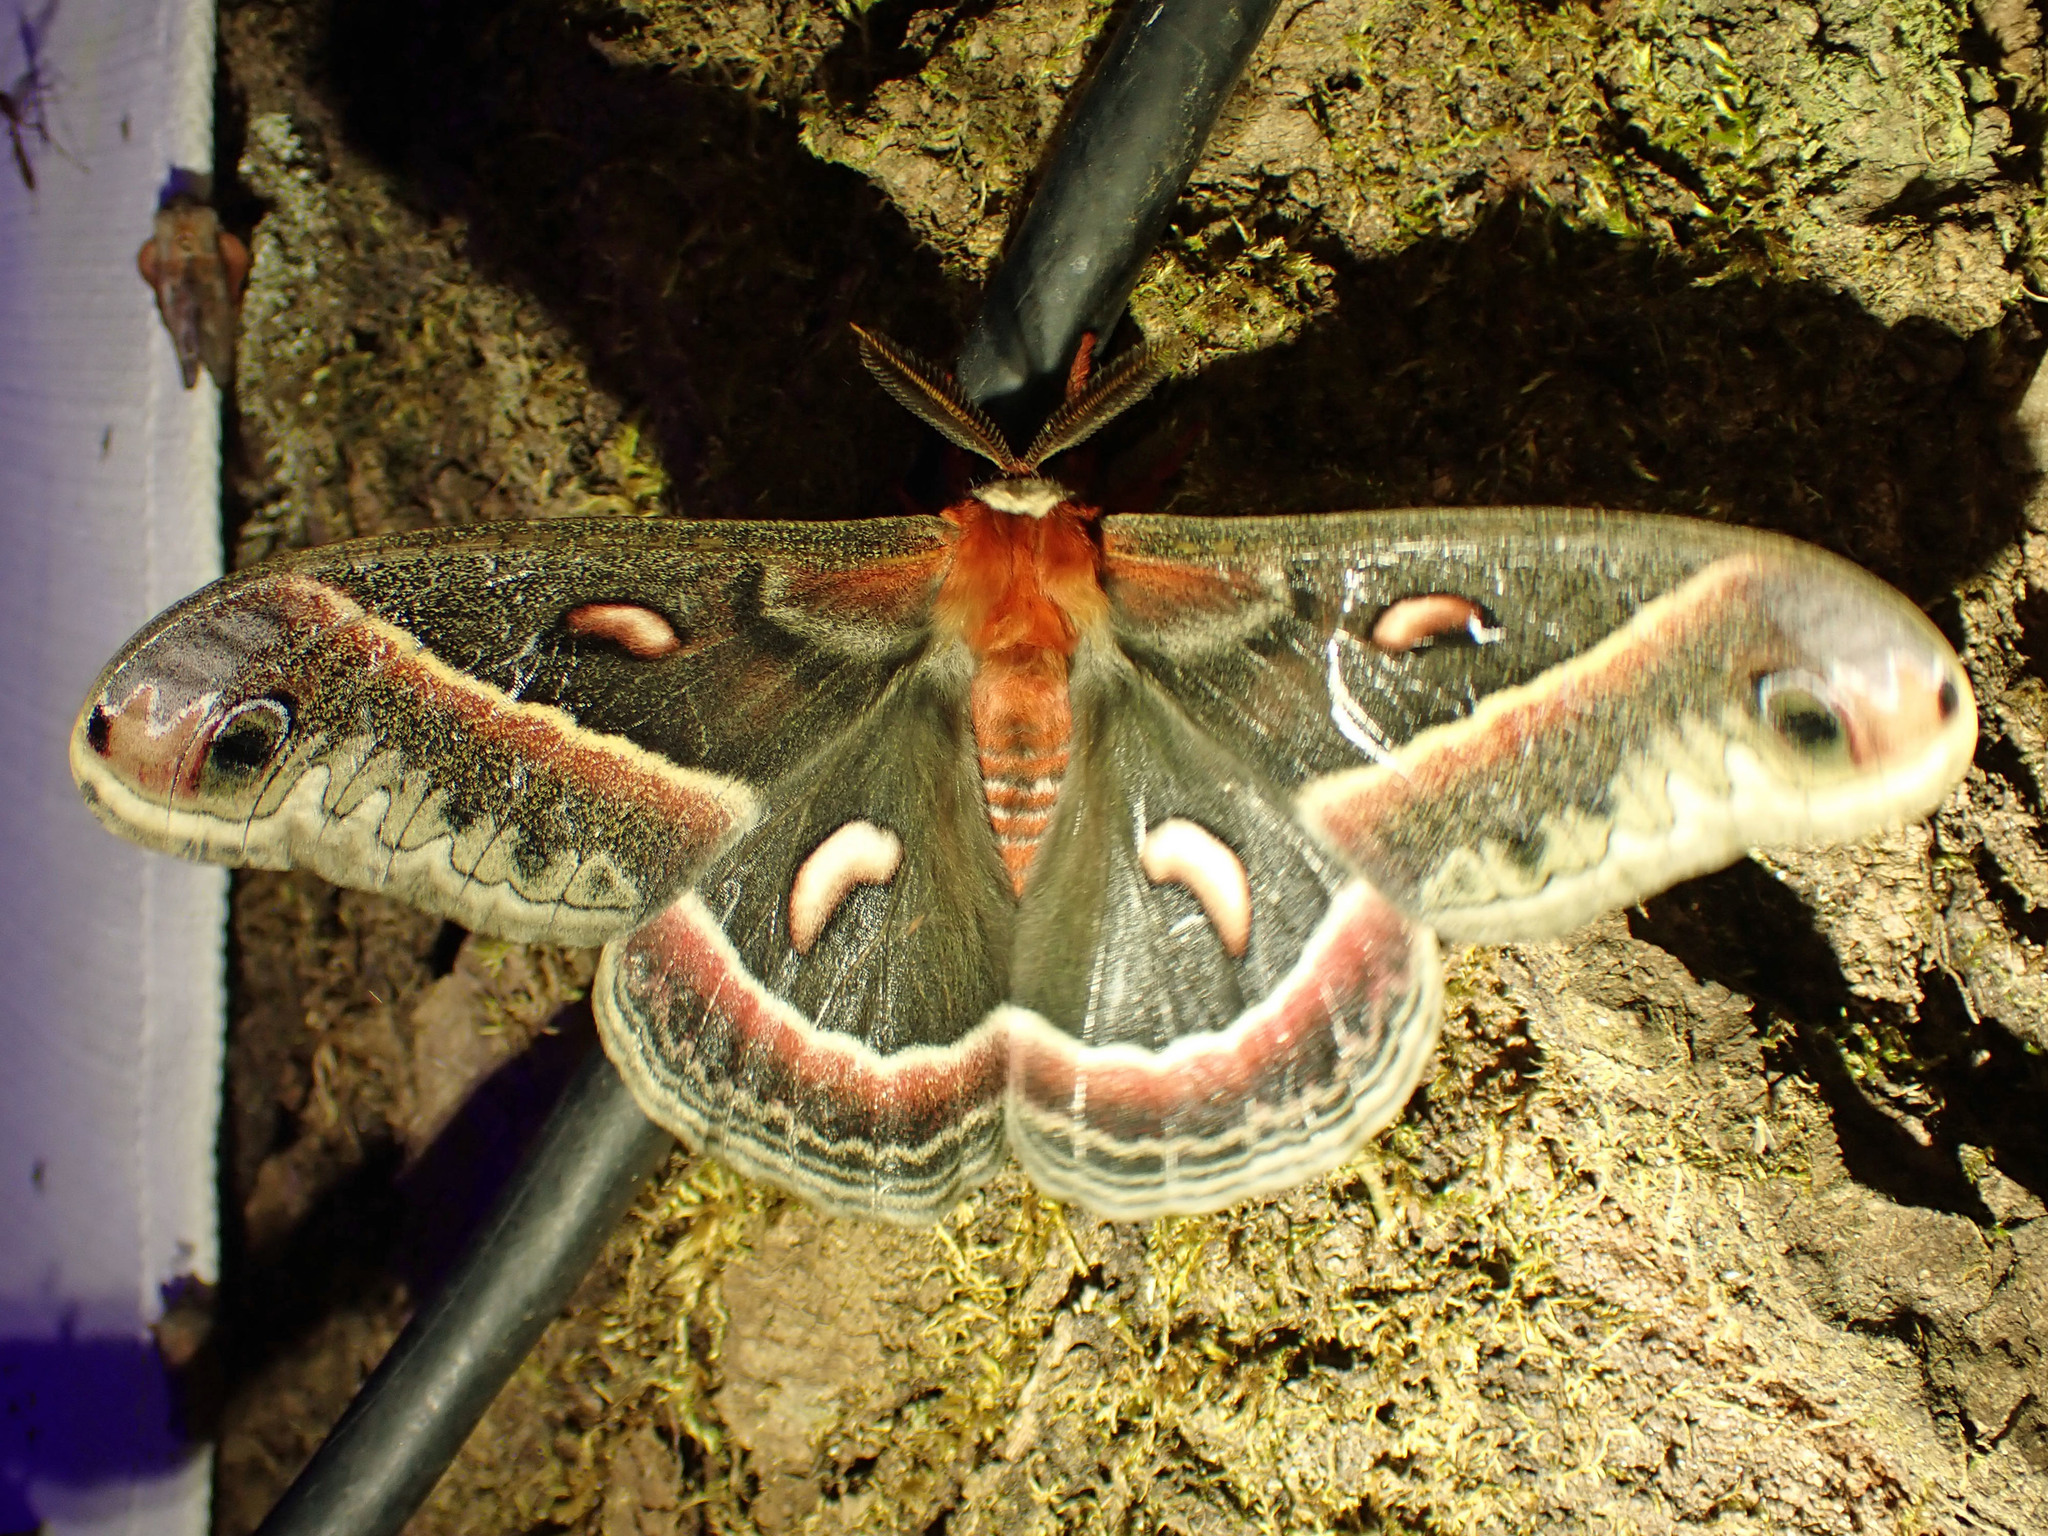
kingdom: Animalia
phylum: Arthropoda
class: Insecta
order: Lepidoptera
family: Saturniidae
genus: Hyalophora
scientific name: Hyalophora cecropia
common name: Cecropia silkmoth
